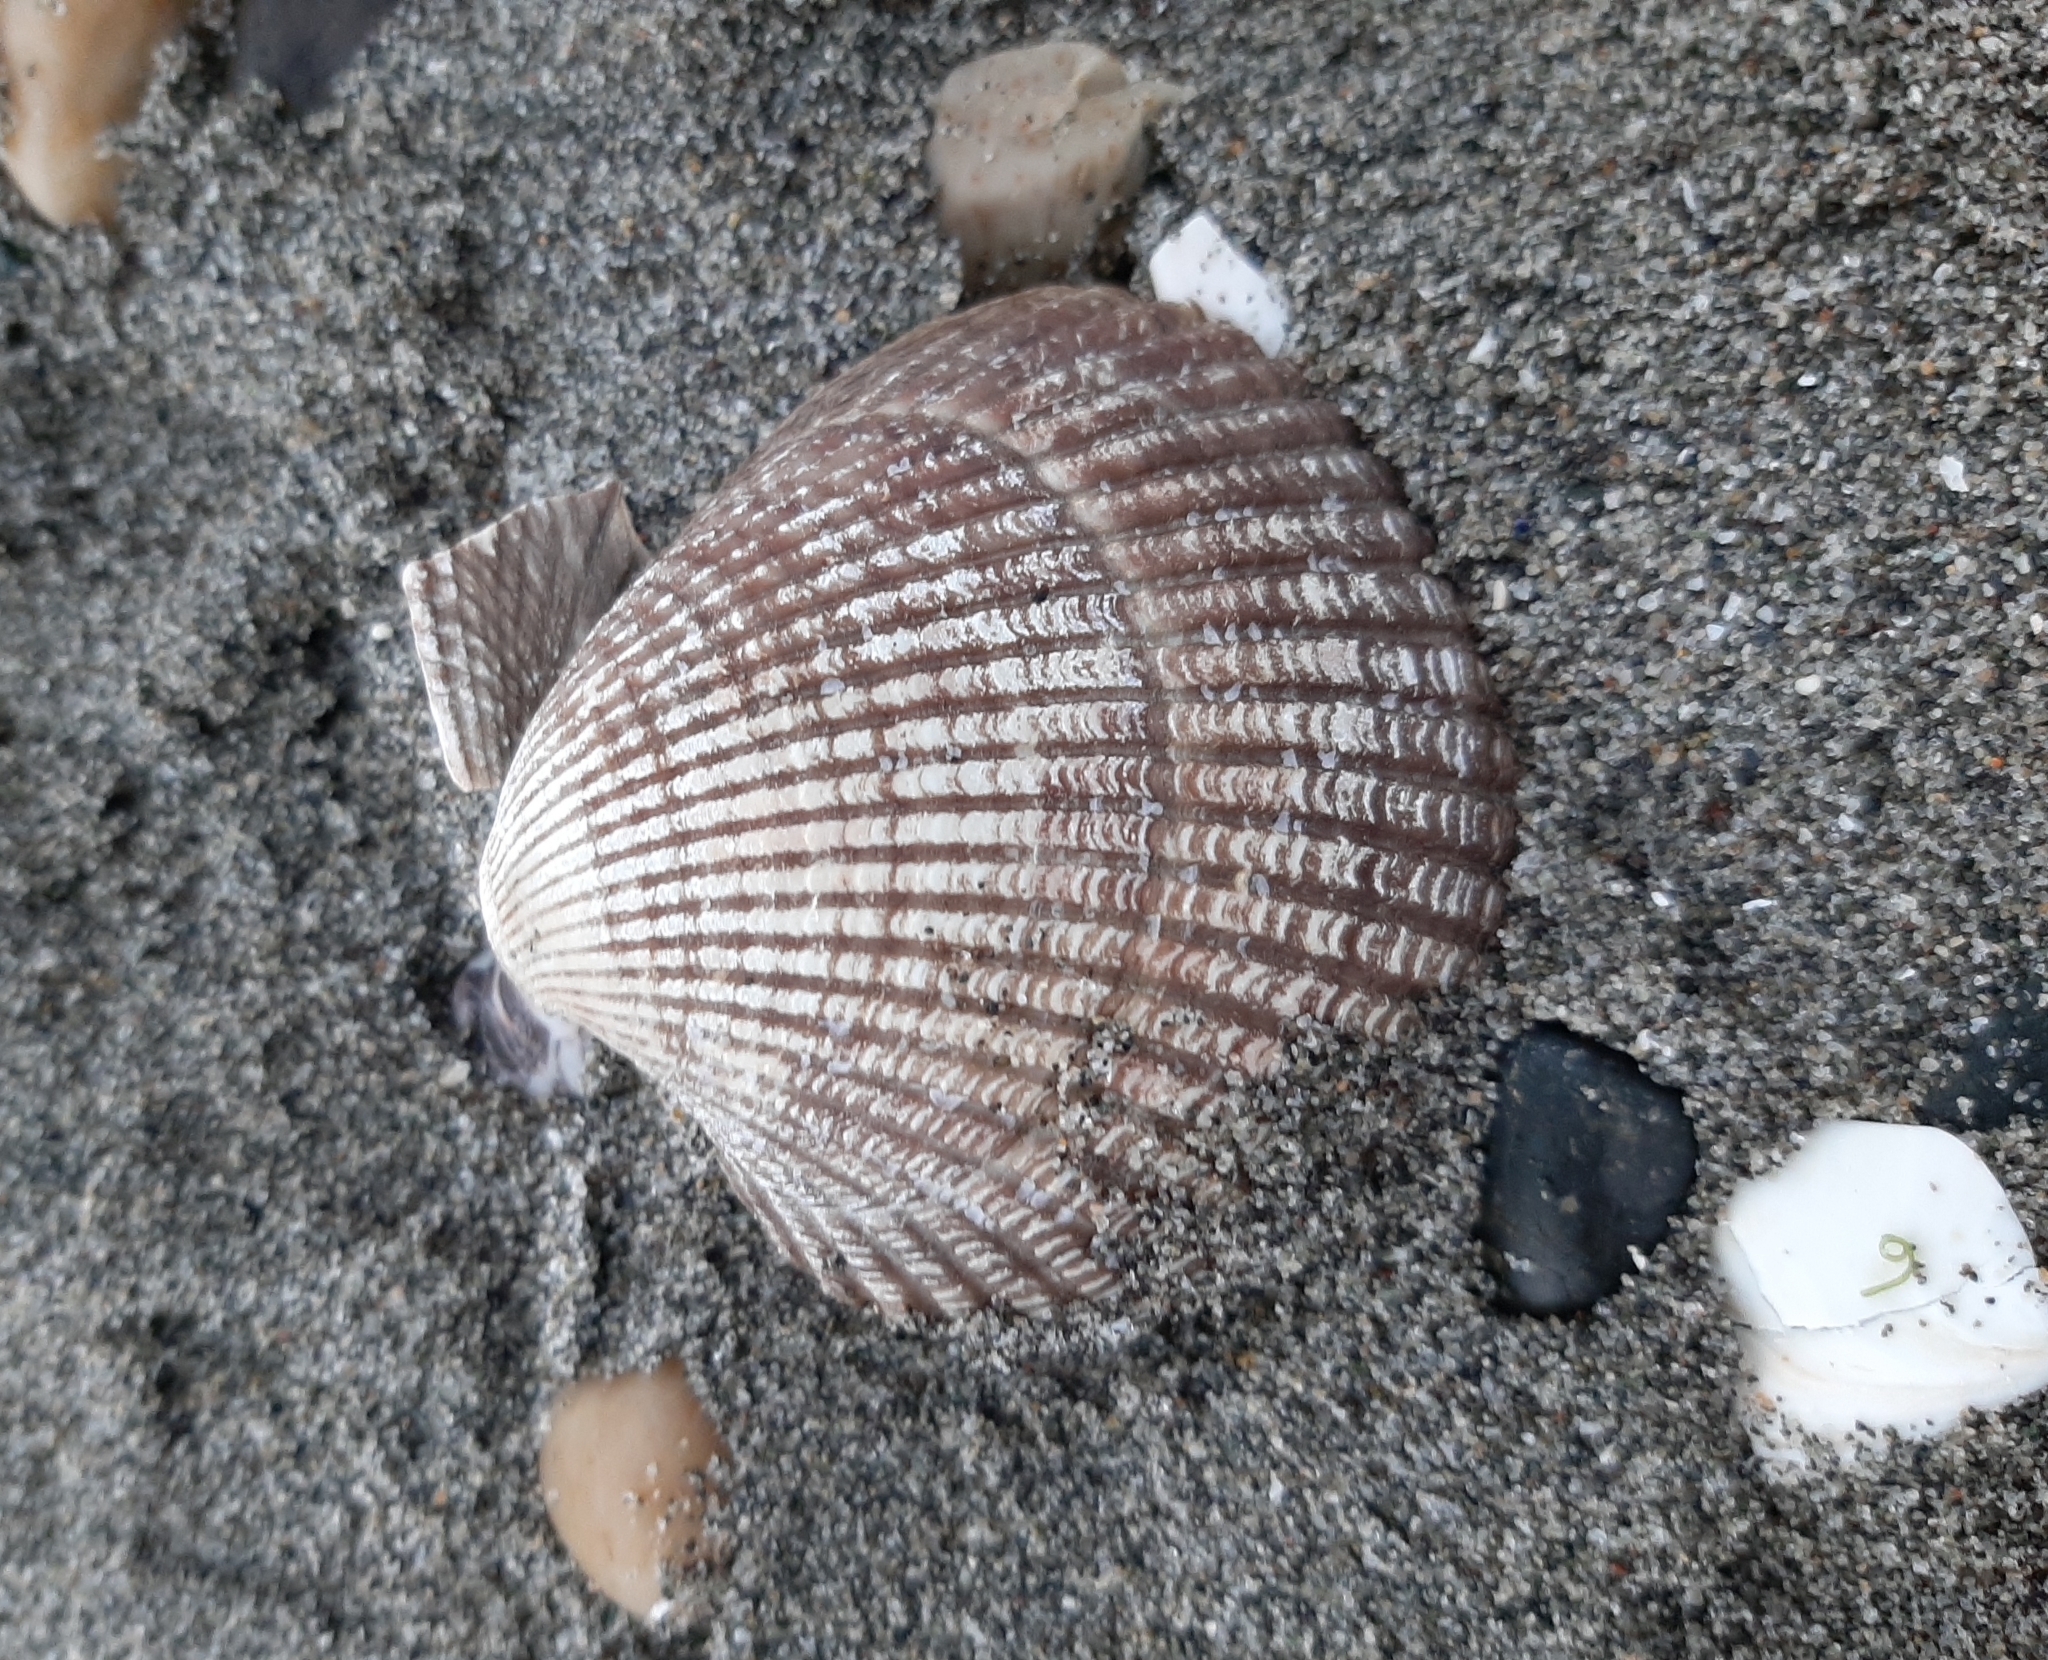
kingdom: Animalia
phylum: Mollusca
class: Bivalvia
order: Cardiida
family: Cardiidae
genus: Clinocardium
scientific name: Clinocardium nuttallii
